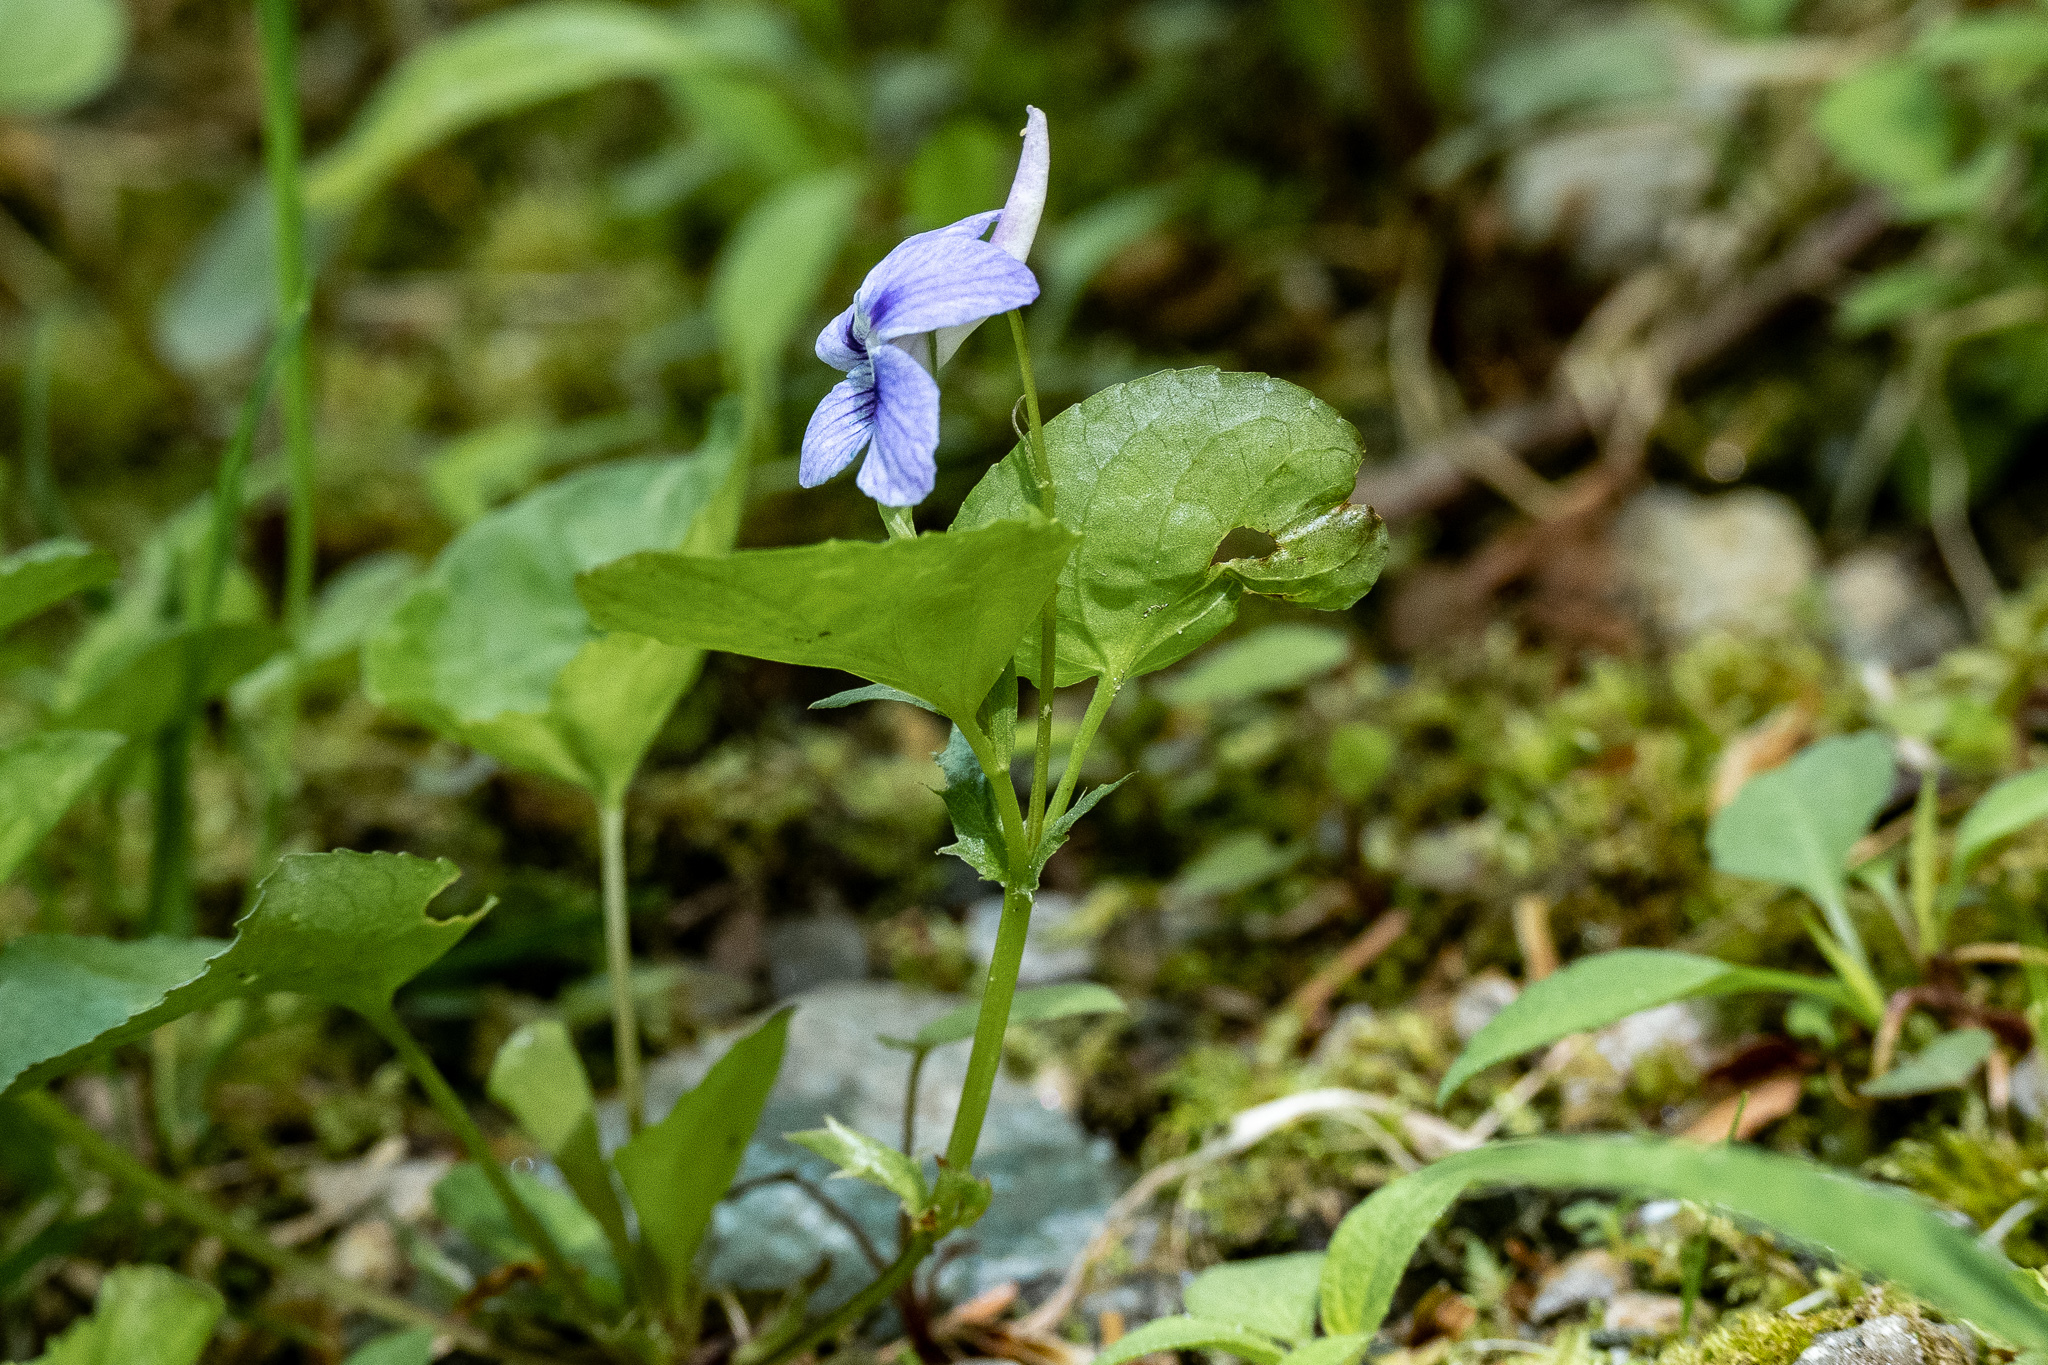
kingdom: Plantae
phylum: Tracheophyta
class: Magnoliopsida
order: Malpighiales
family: Violaceae
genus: Viola
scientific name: Viola rostrata
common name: Long-spur violet
